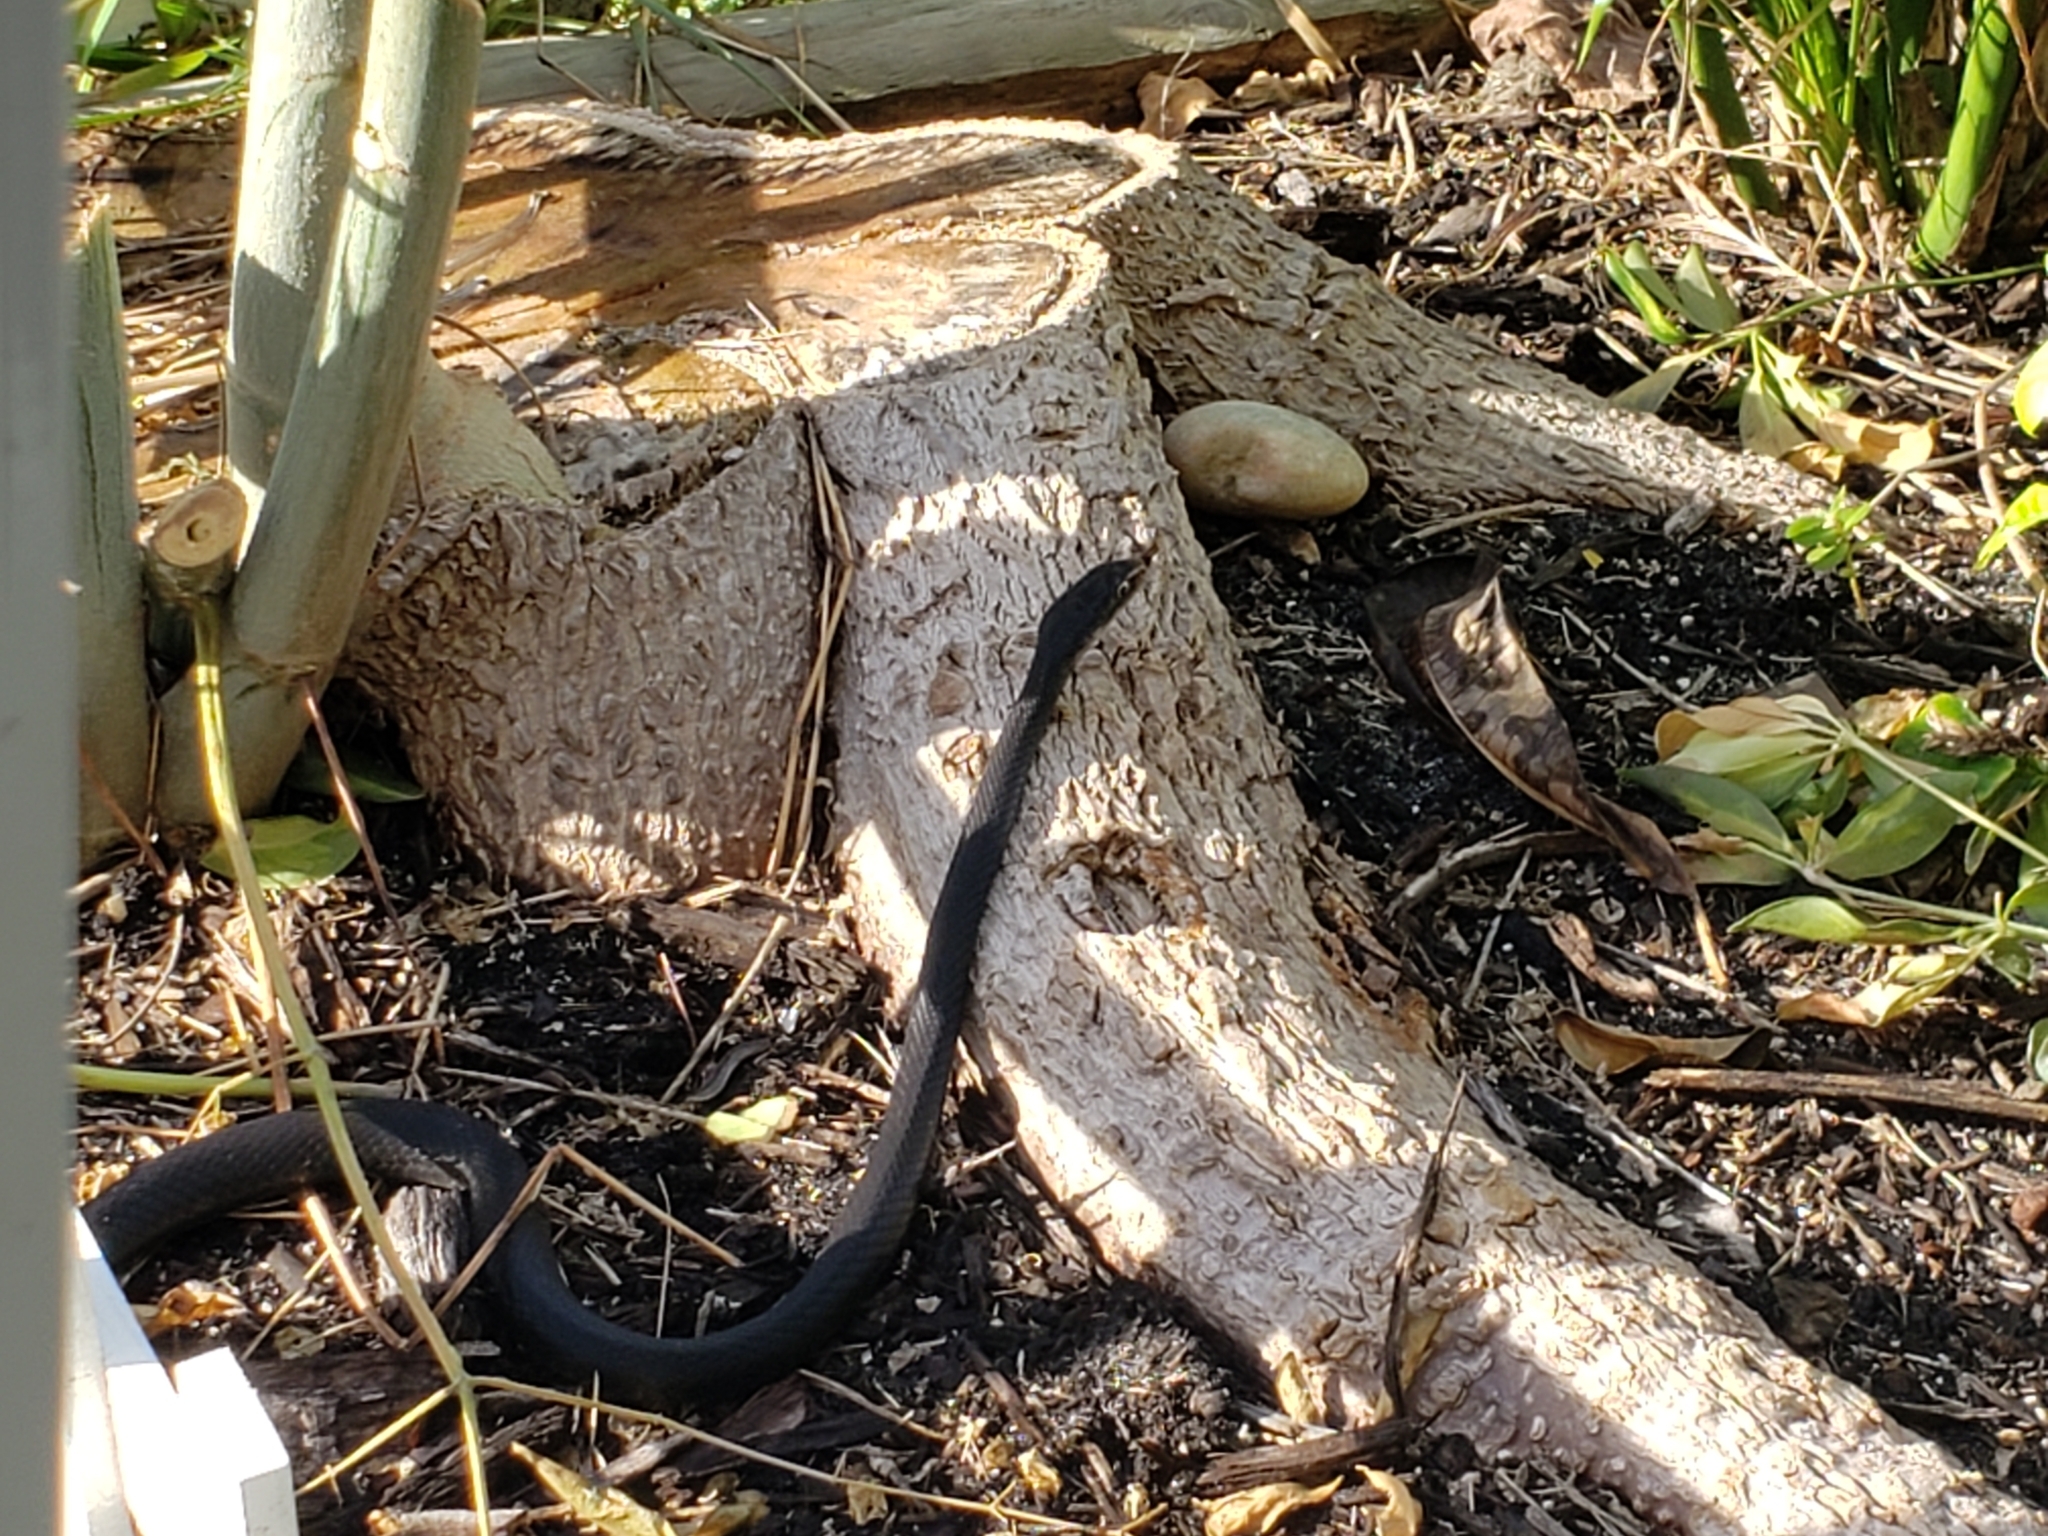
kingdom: Animalia
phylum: Chordata
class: Squamata
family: Colubridae
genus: Coluber
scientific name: Coluber constrictor
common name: Eastern racer
